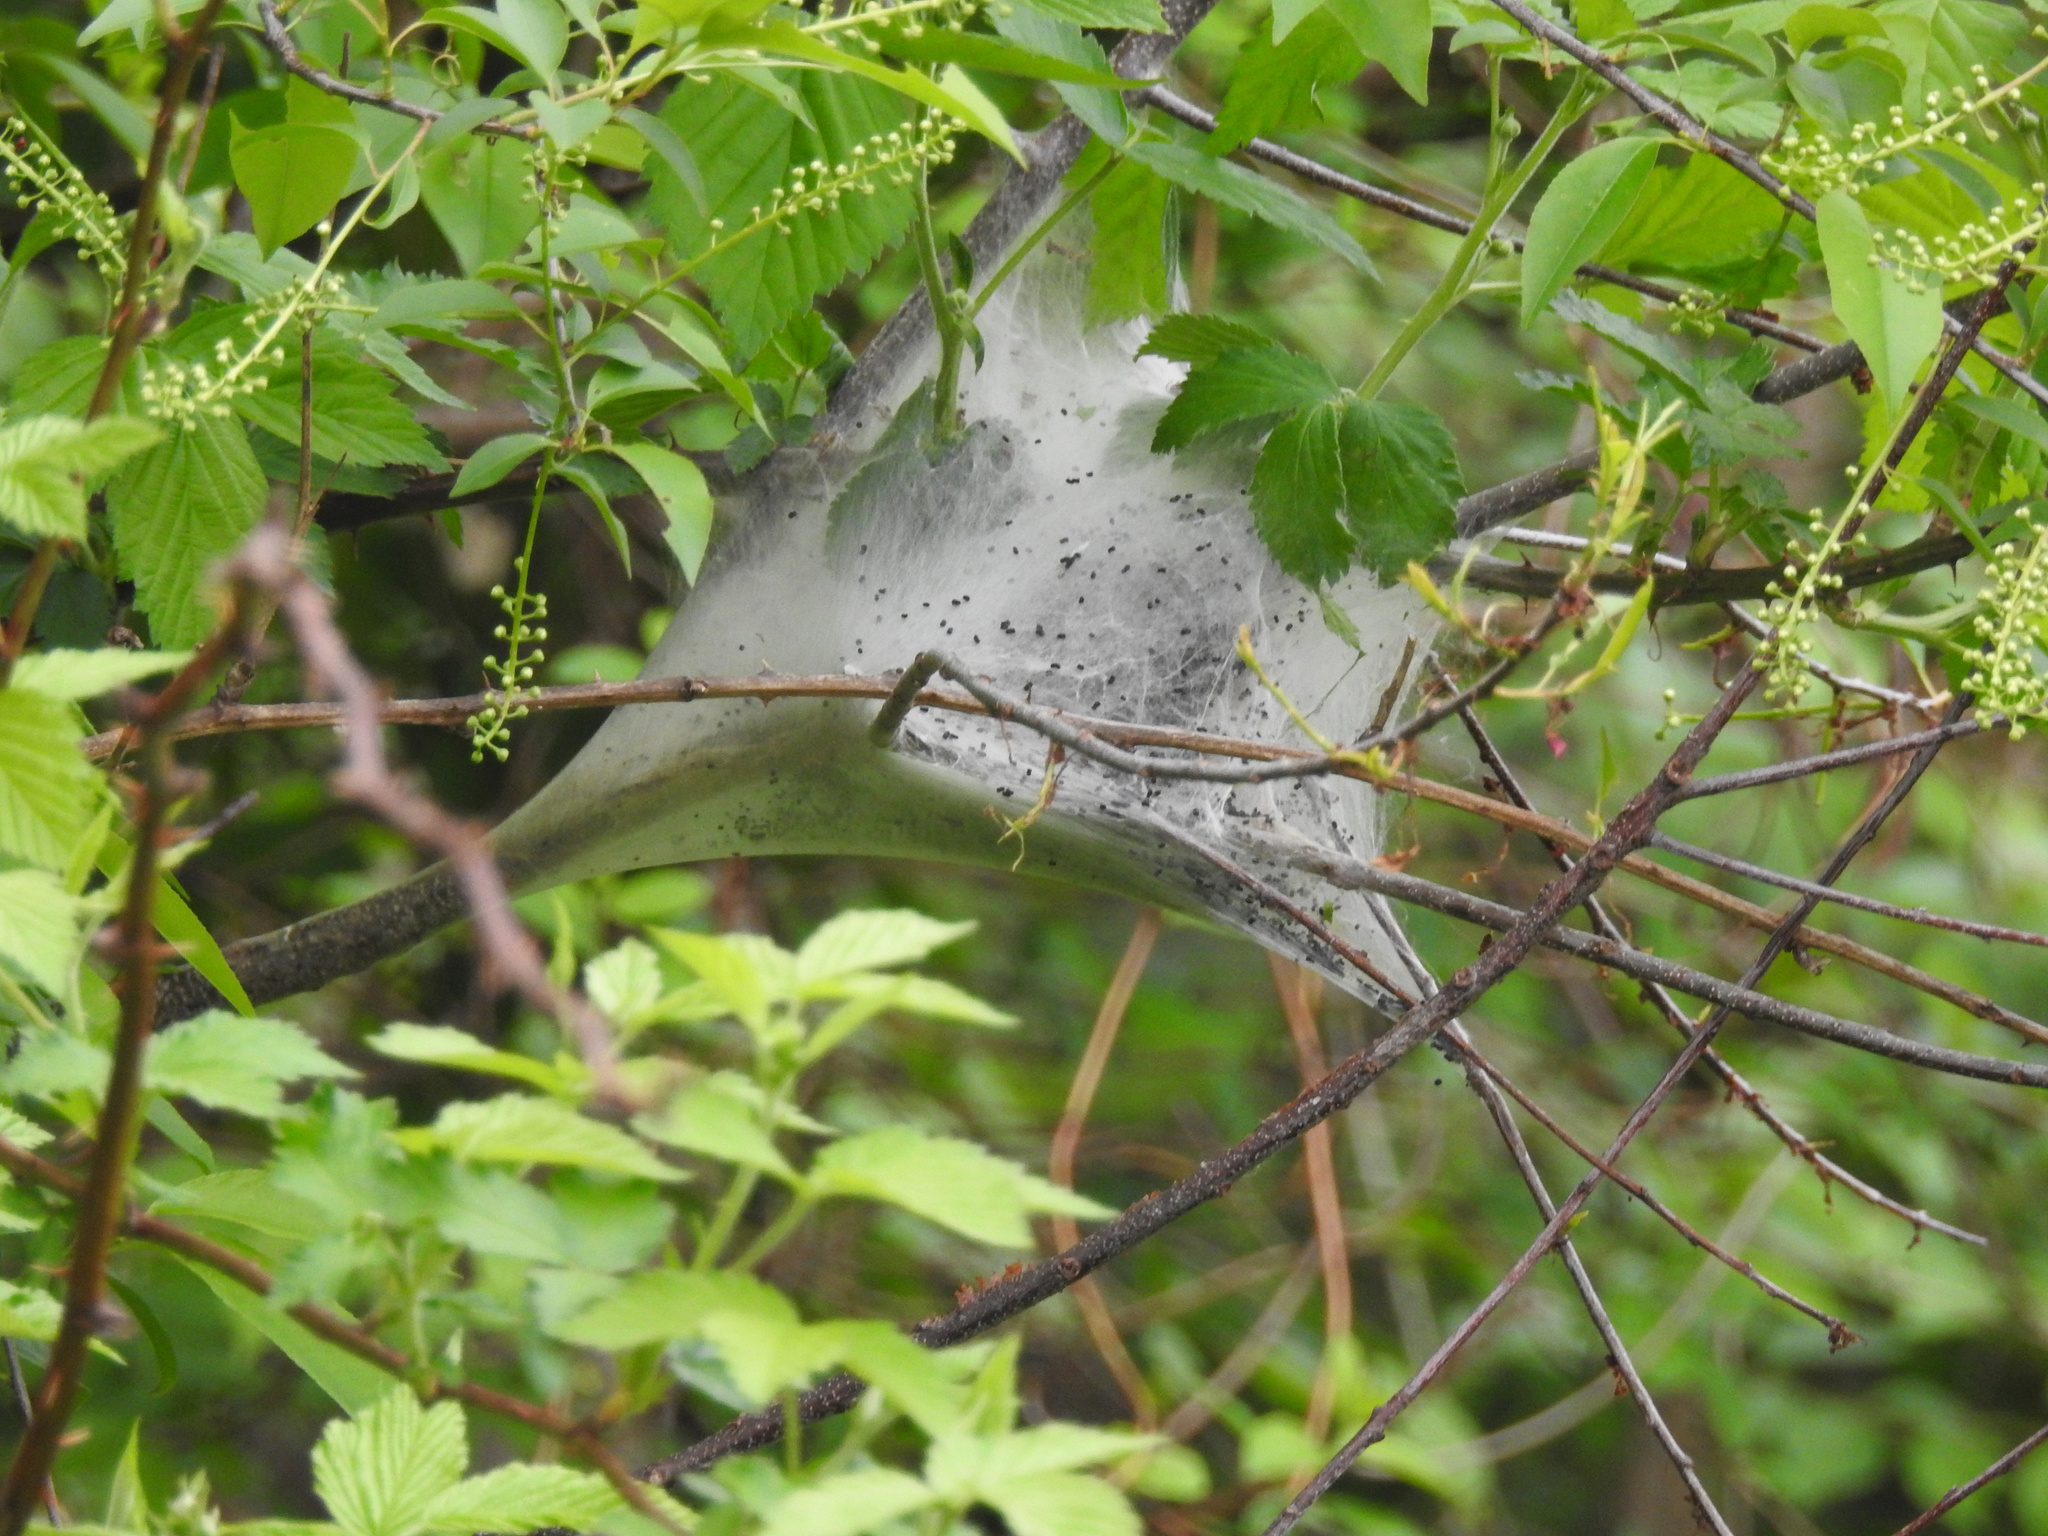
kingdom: Animalia
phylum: Arthropoda
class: Insecta
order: Lepidoptera
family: Lasiocampidae
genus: Malacosoma
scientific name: Malacosoma americana
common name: Eastern tent caterpillar moth
